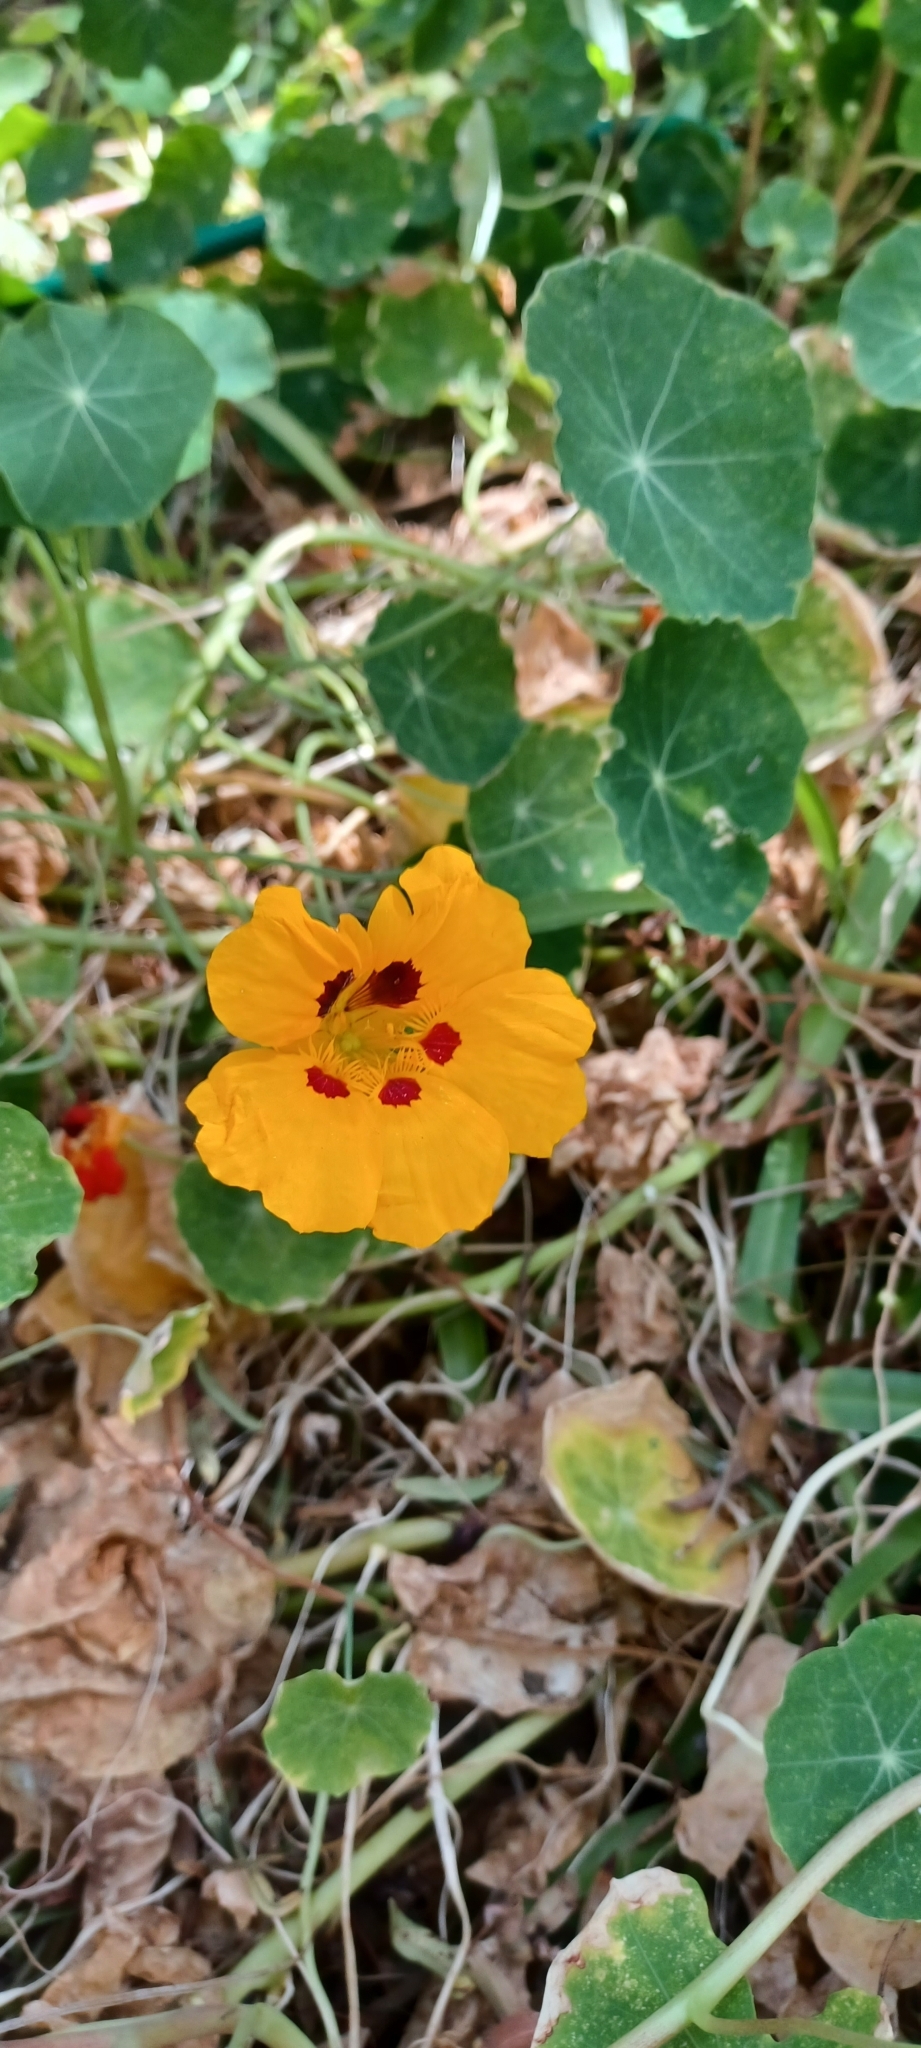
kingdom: Plantae
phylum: Tracheophyta
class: Magnoliopsida
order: Brassicales
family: Tropaeolaceae
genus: Tropaeolum
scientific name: Tropaeolum majus
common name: Nasturtium
